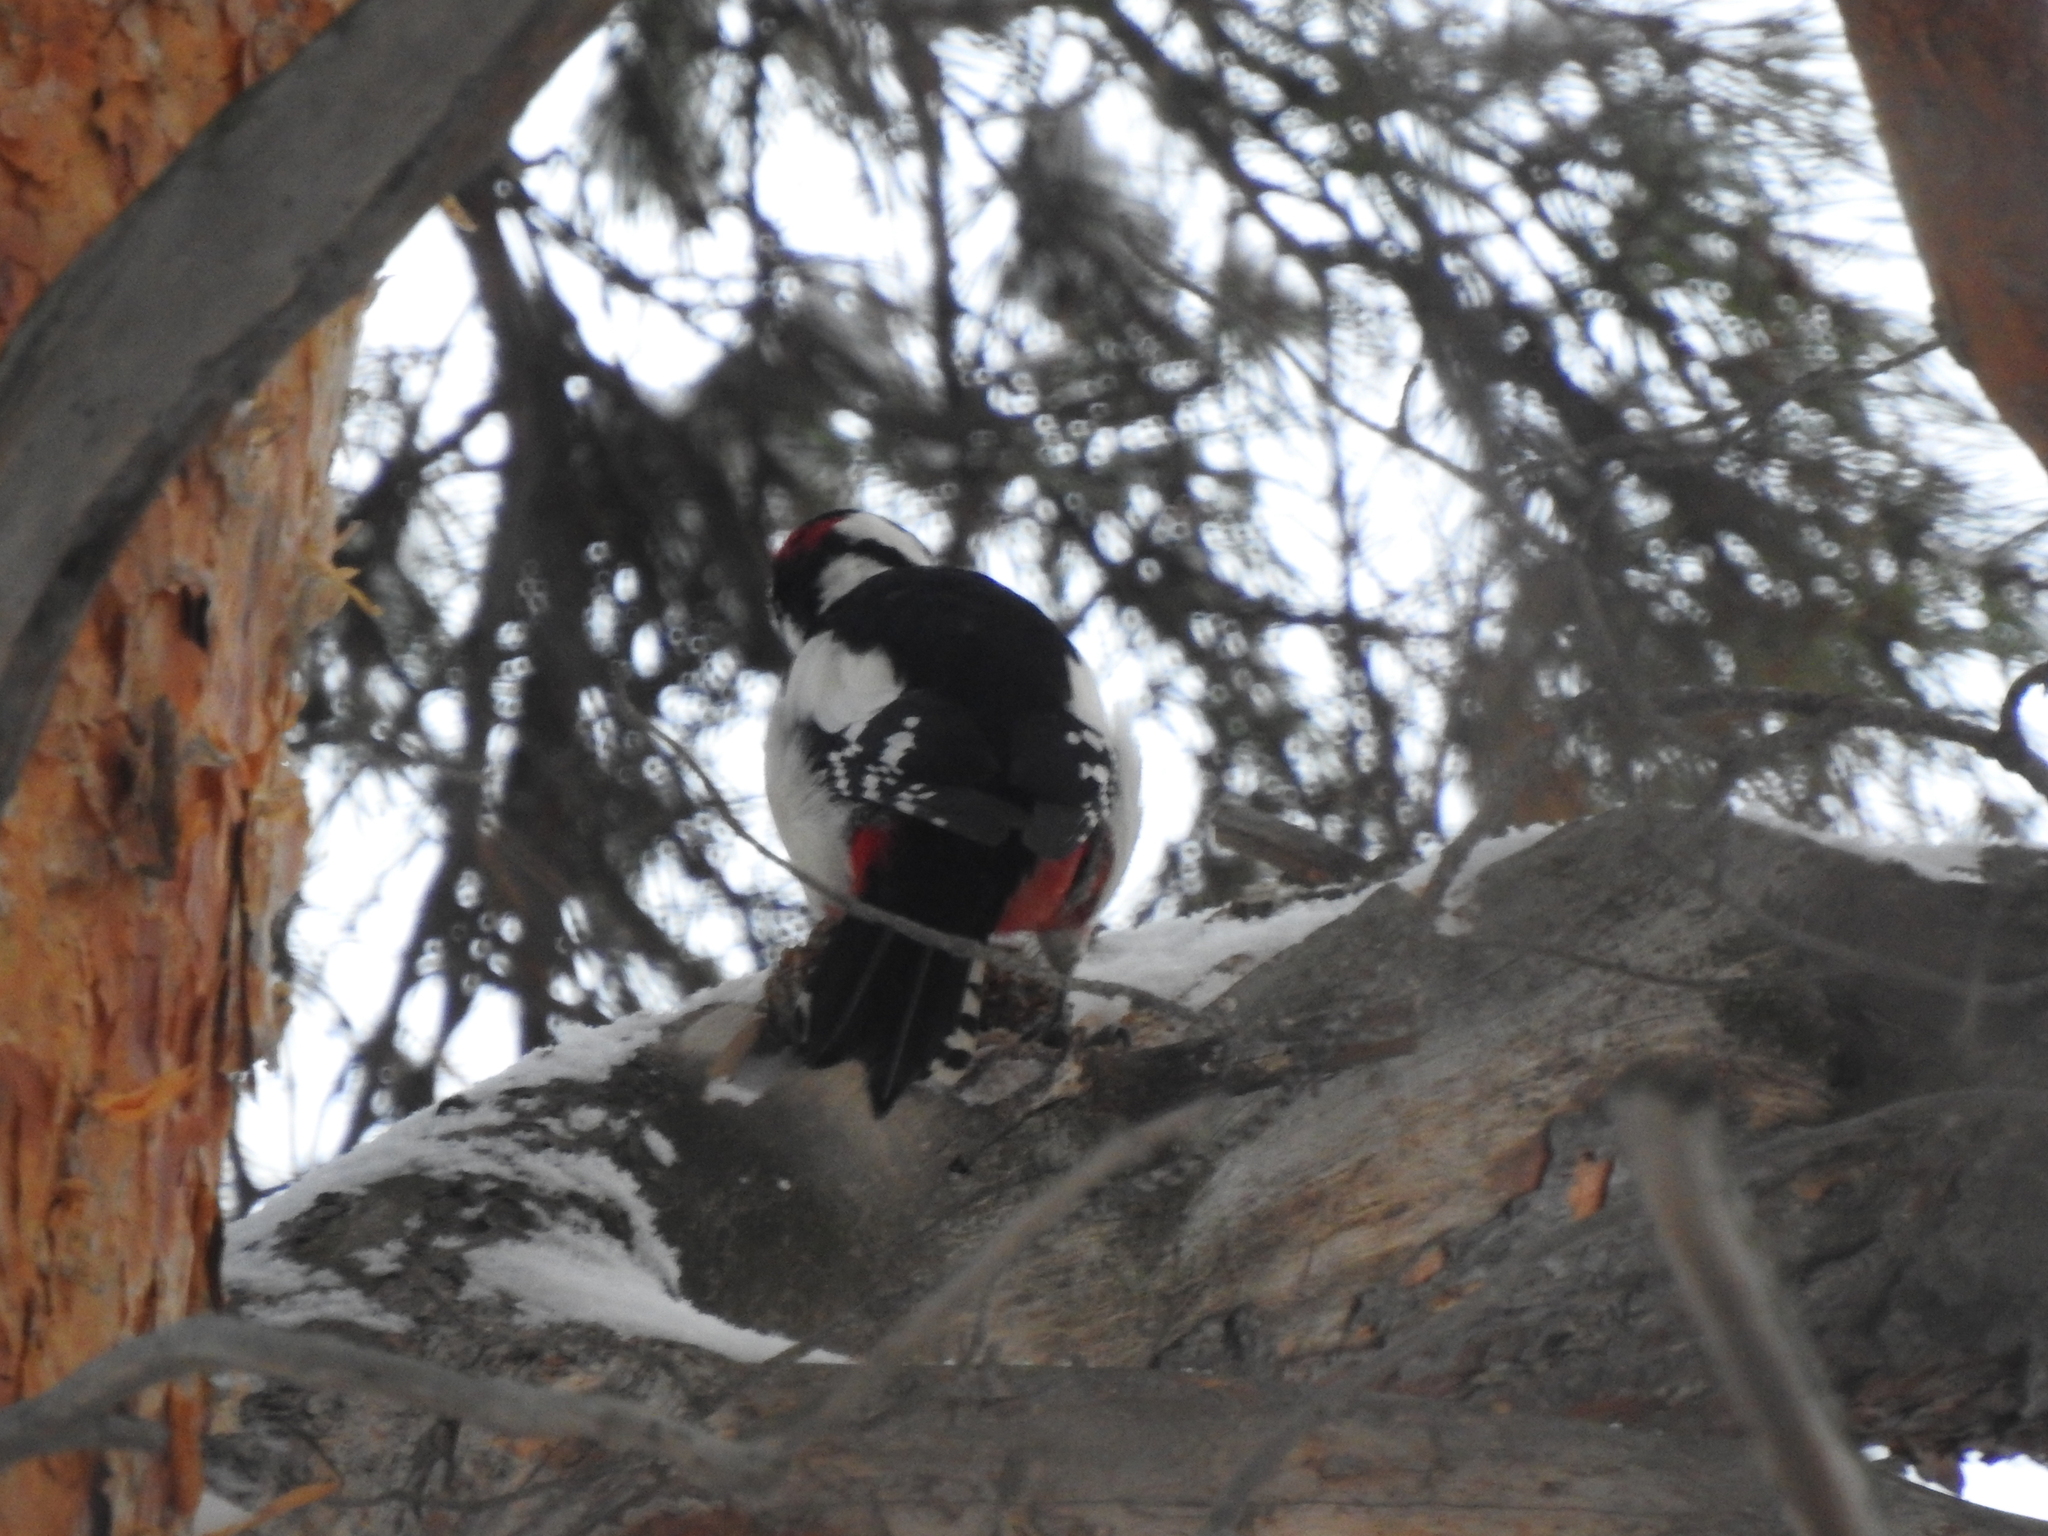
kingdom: Animalia
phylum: Chordata
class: Aves
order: Piciformes
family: Picidae
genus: Dendrocopos
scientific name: Dendrocopos major
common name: Great spotted woodpecker
